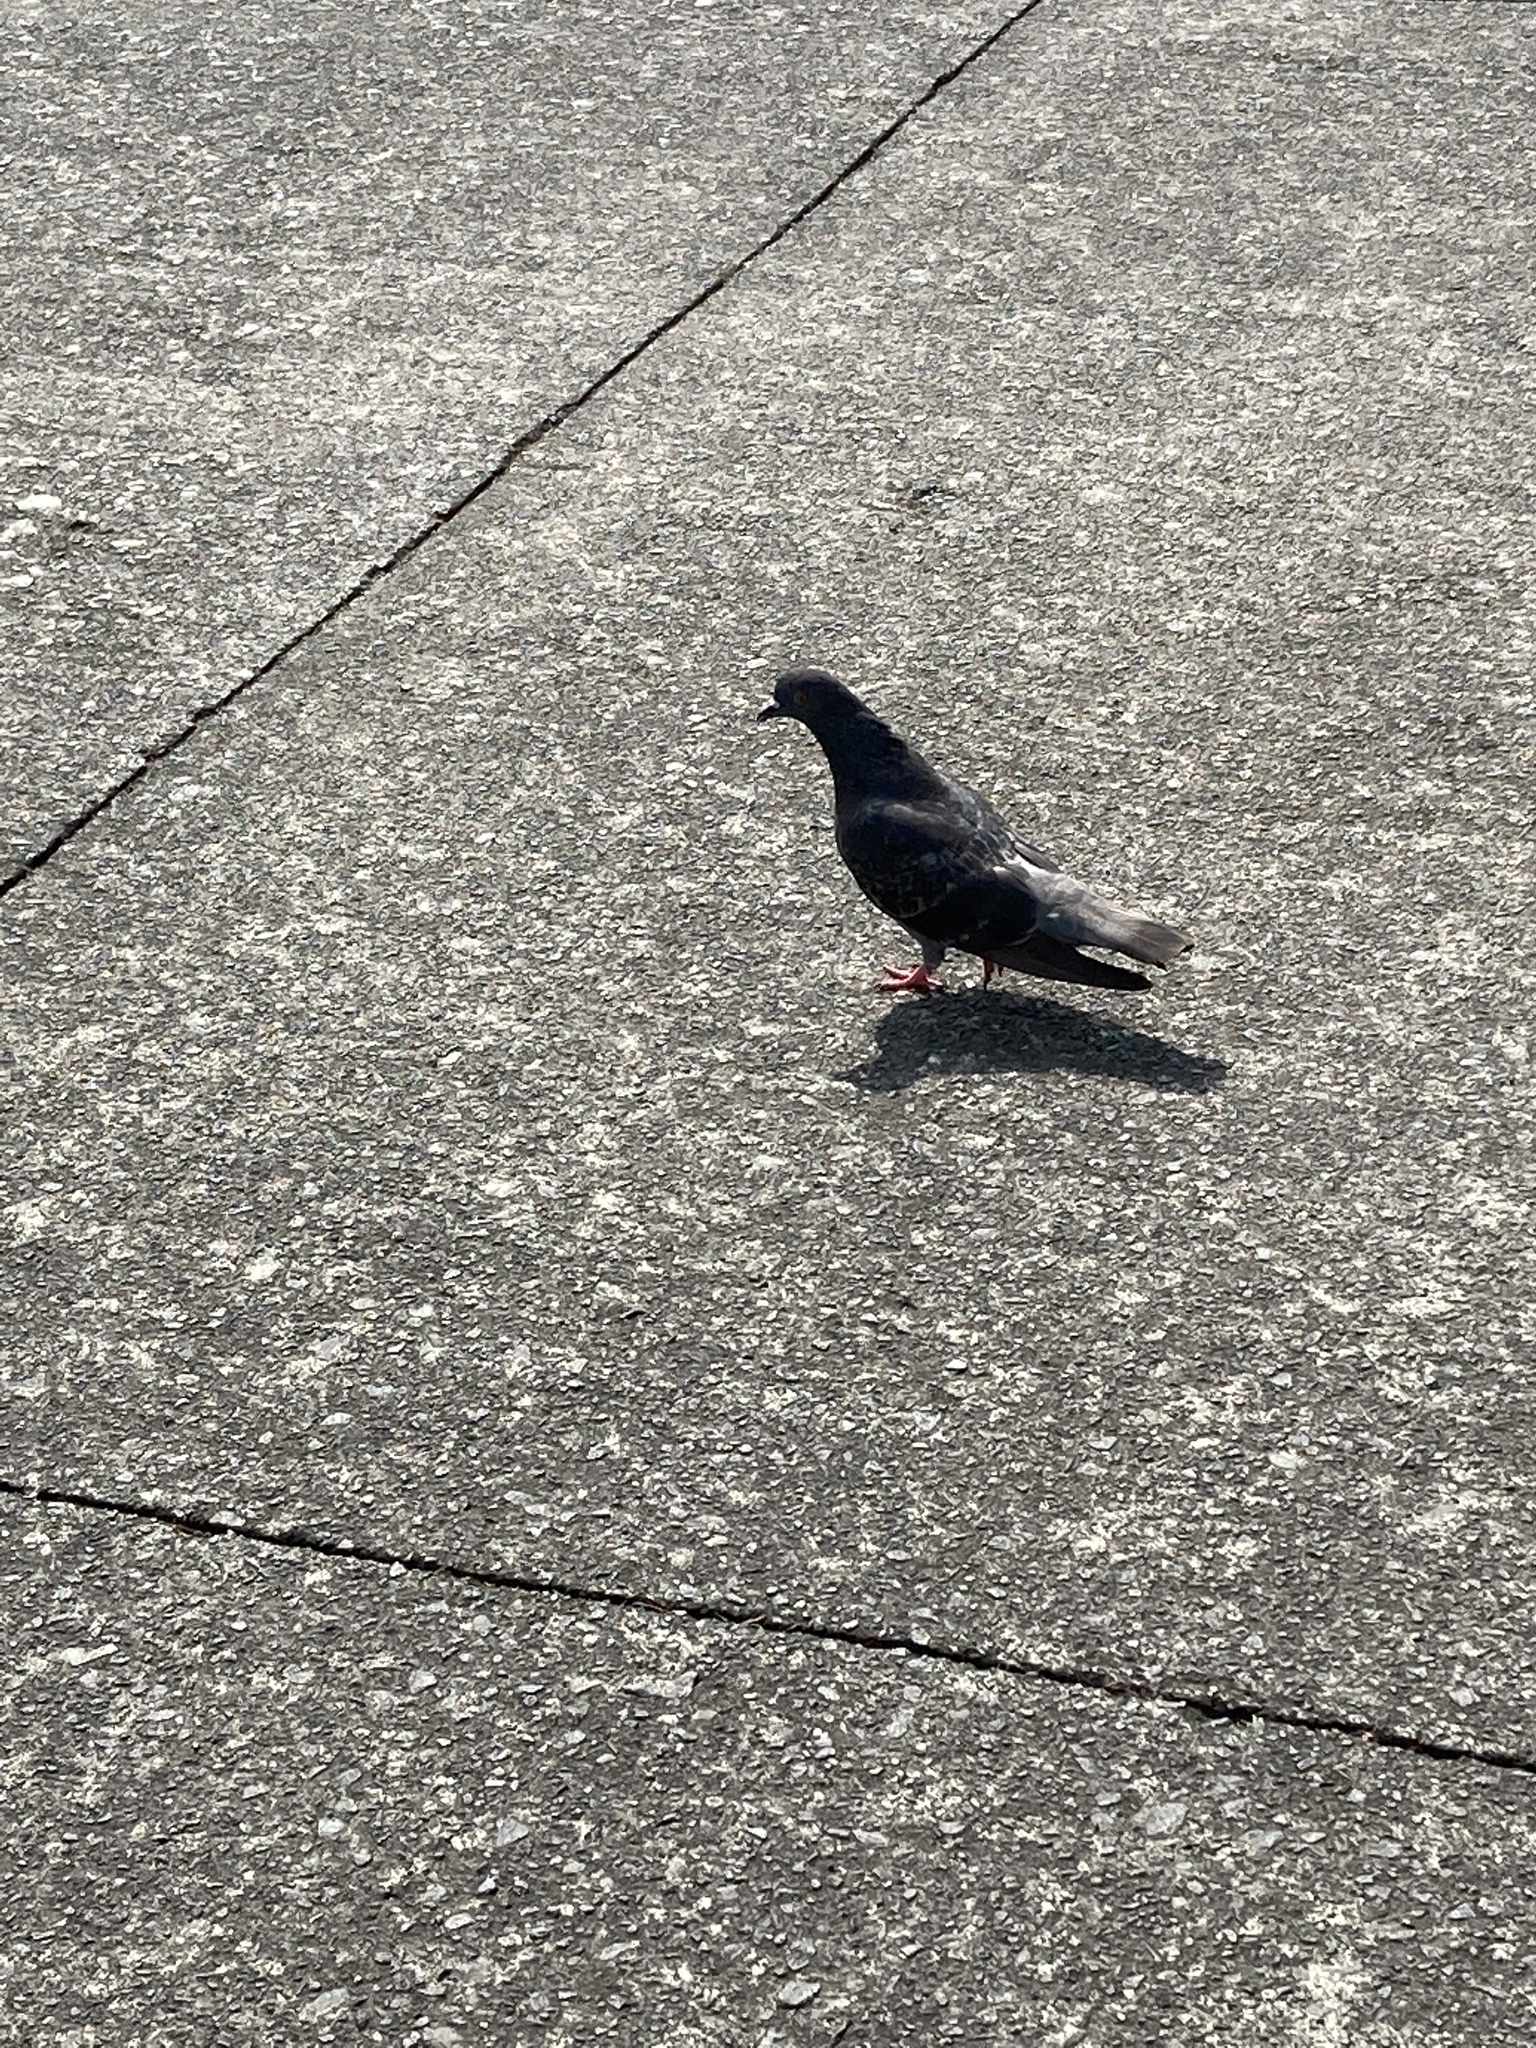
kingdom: Animalia
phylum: Chordata
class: Aves
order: Columbiformes
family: Columbidae
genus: Columba
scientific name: Columba livia
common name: Rock pigeon
